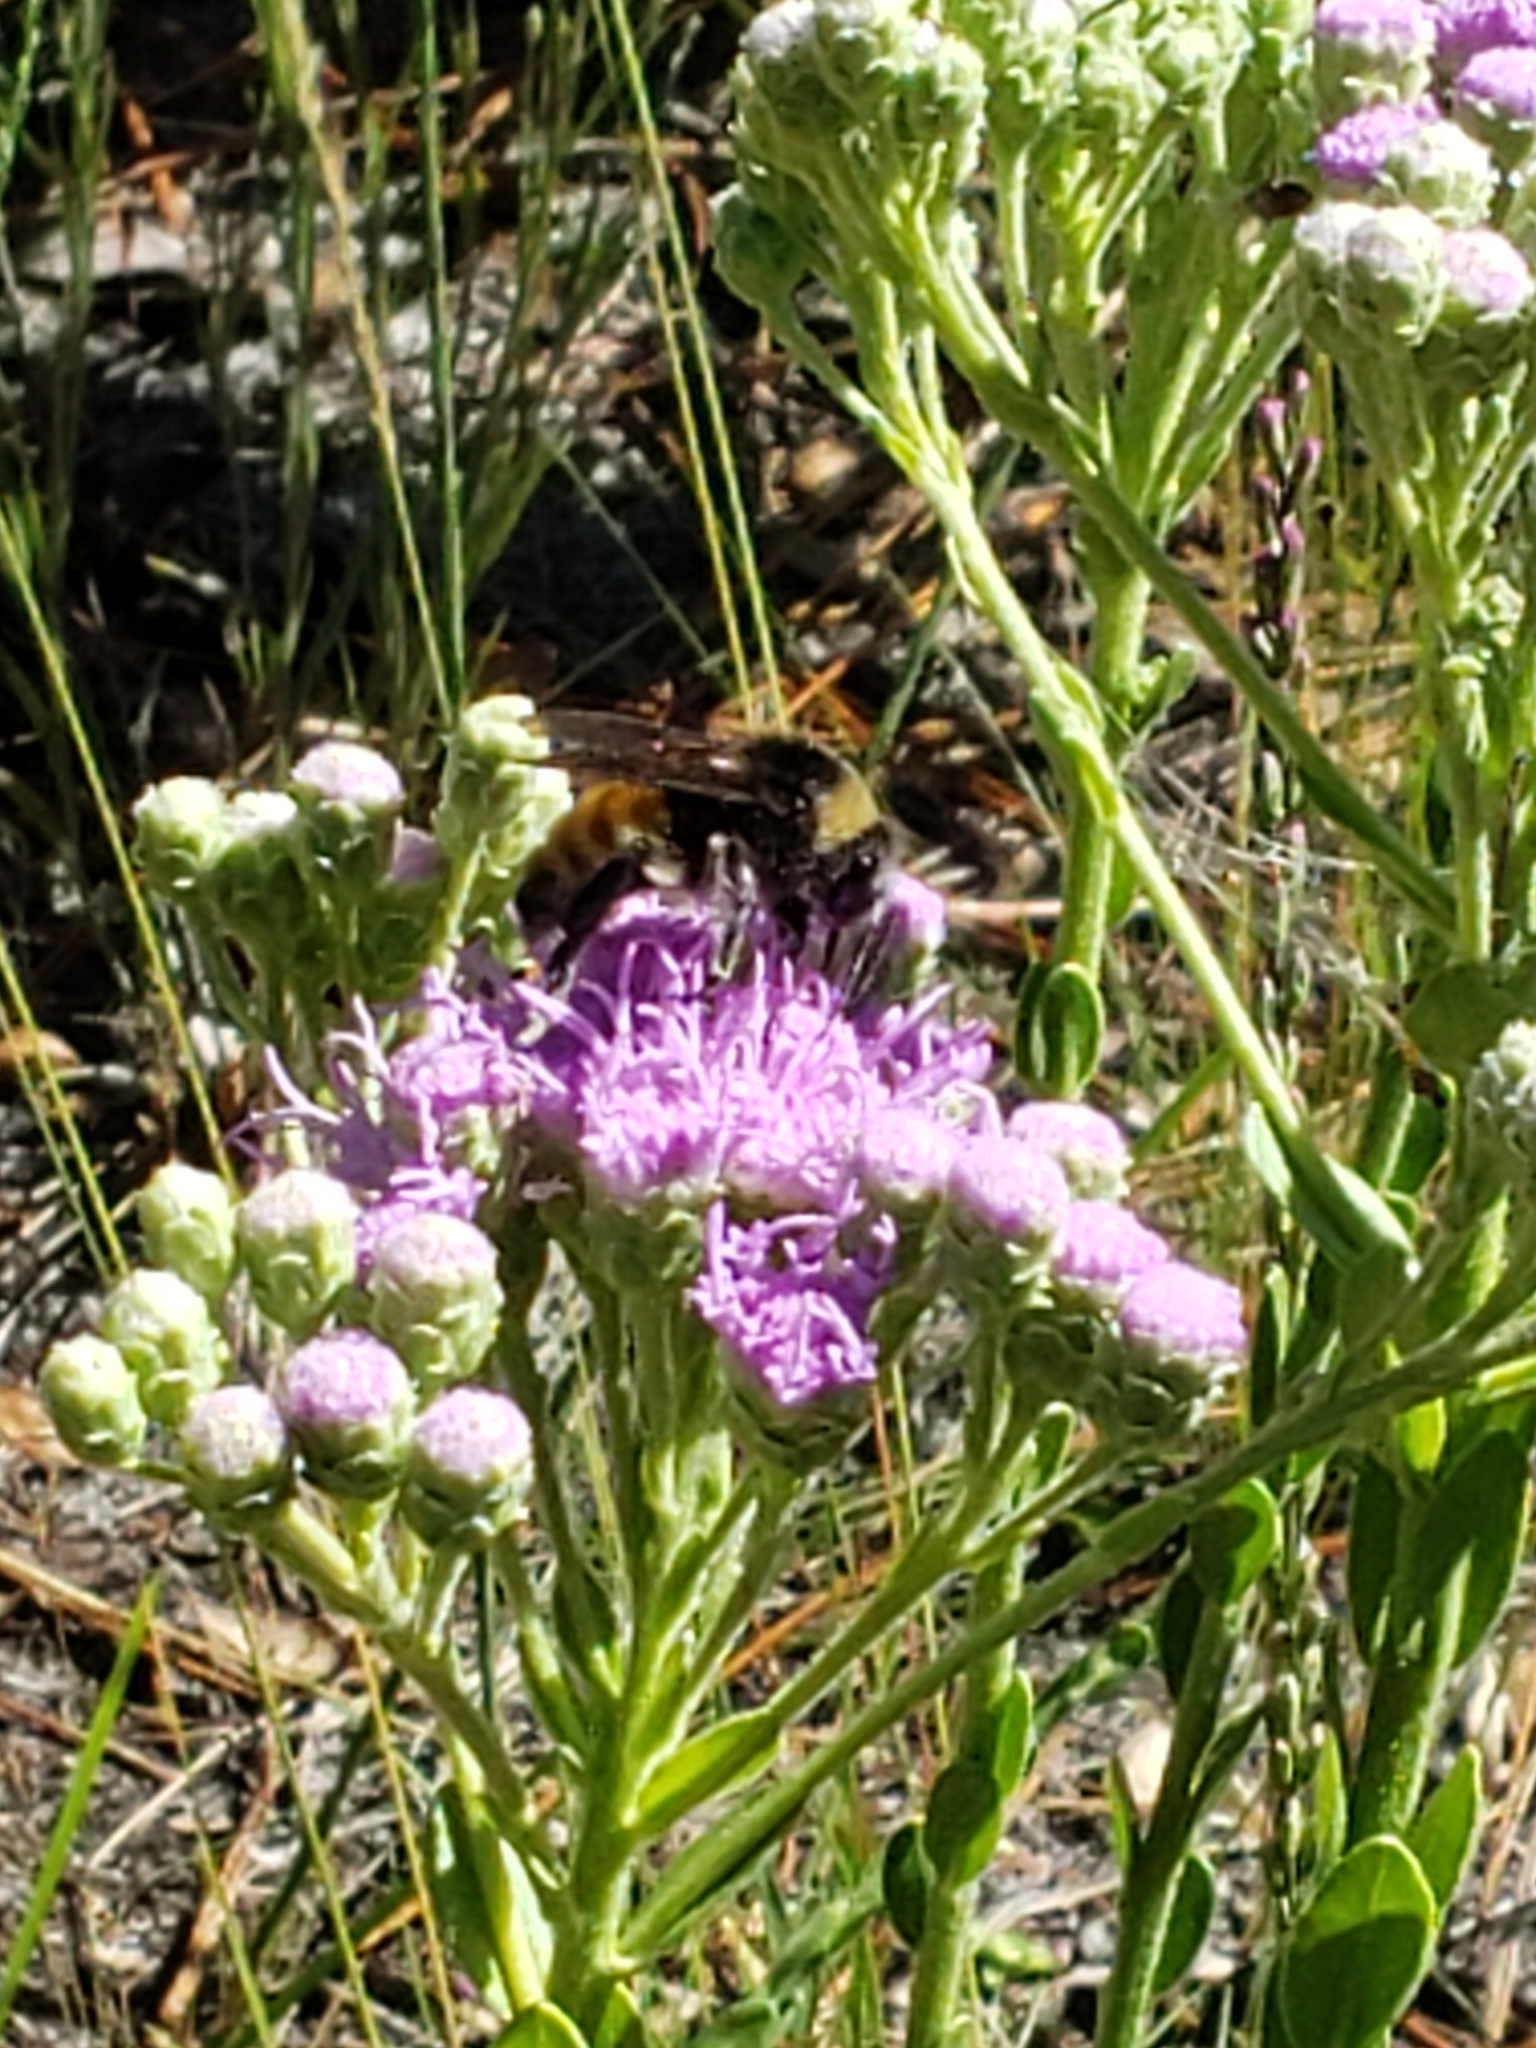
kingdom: Animalia
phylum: Arthropoda
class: Insecta
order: Hymenoptera
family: Apidae
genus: Bombus
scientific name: Bombus pensylvanicus
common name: Bumble bee
